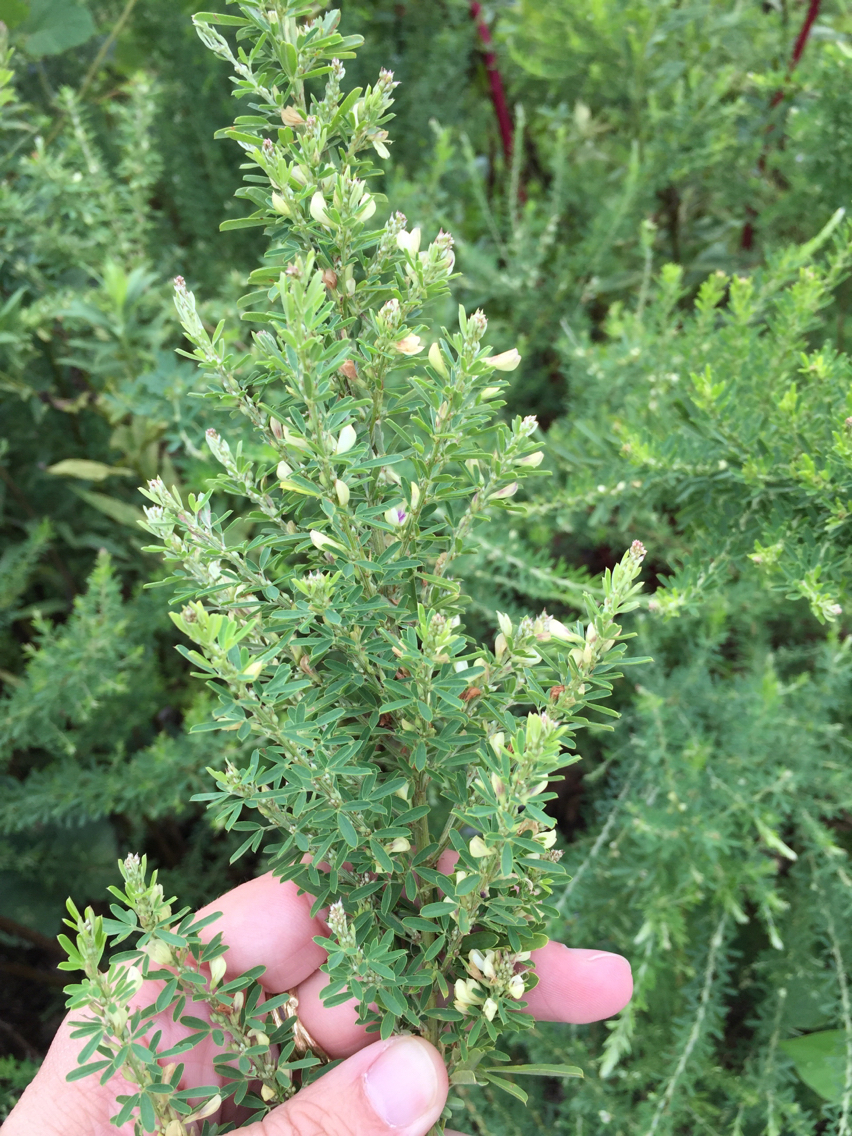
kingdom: Plantae
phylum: Tracheophyta
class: Magnoliopsida
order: Fabales
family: Fabaceae
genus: Lespedeza
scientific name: Lespedeza cuneata
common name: Chinese bush-clover
